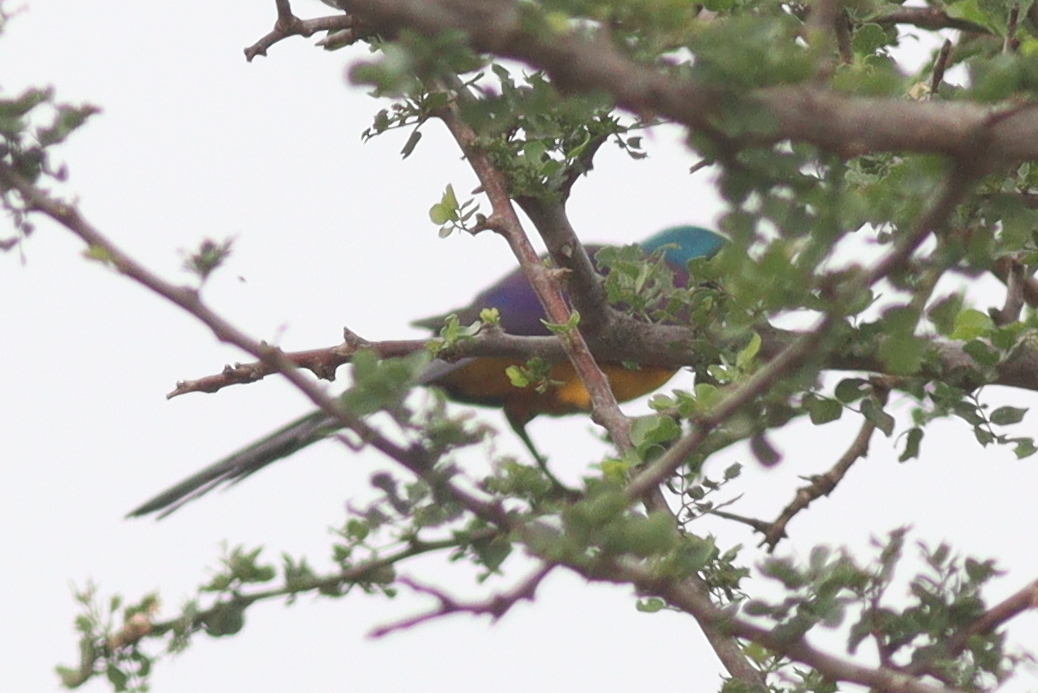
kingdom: Animalia
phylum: Chordata
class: Aves
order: Passeriformes
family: Sturnidae
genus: Lamprotornis
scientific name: Lamprotornis regius
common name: Golden-breasted starling
